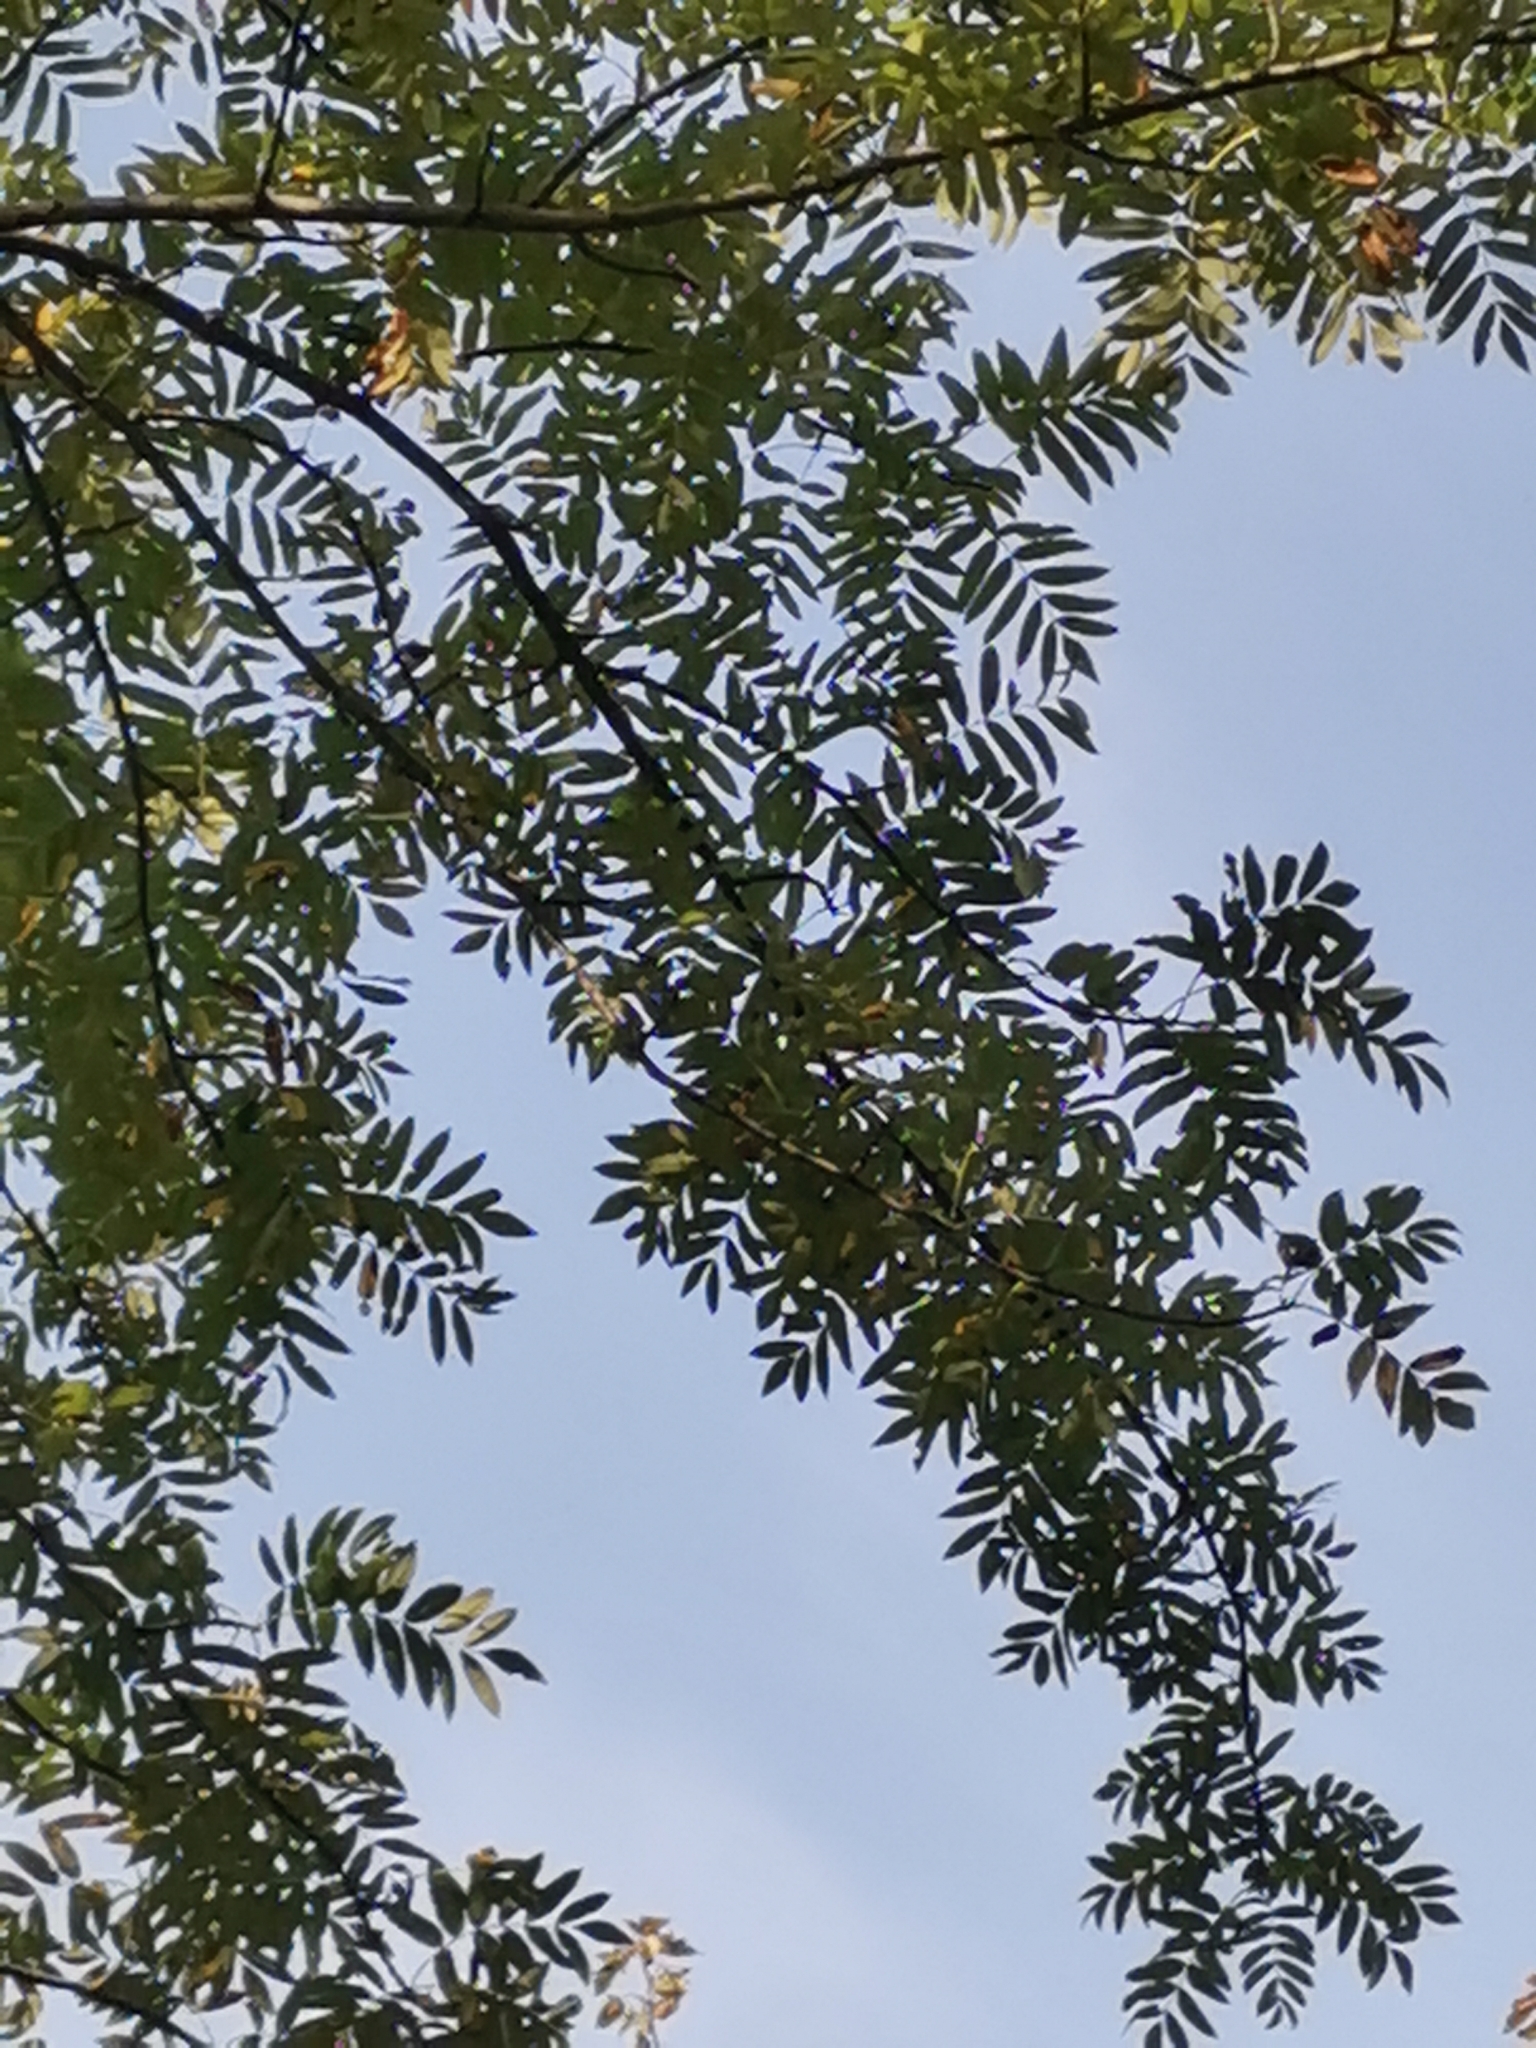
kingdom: Plantae
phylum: Tracheophyta
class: Magnoliopsida
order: Rosales
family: Rosaceae
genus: Cormus
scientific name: Cormus domestica
